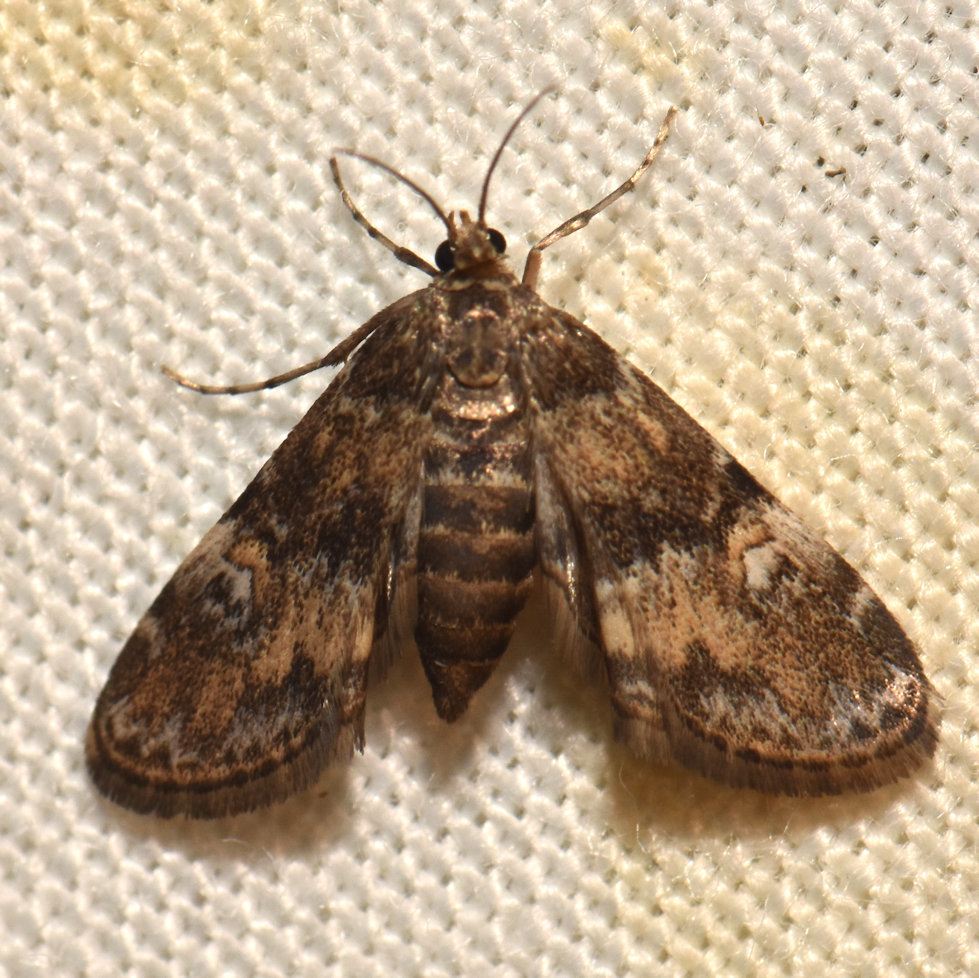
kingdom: Animalia
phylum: Arthropoda
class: Insecta
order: Lepidoptera
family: Crambidae
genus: Elophila
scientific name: Elophila obliteralis
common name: Waterlily leafcutter moth
